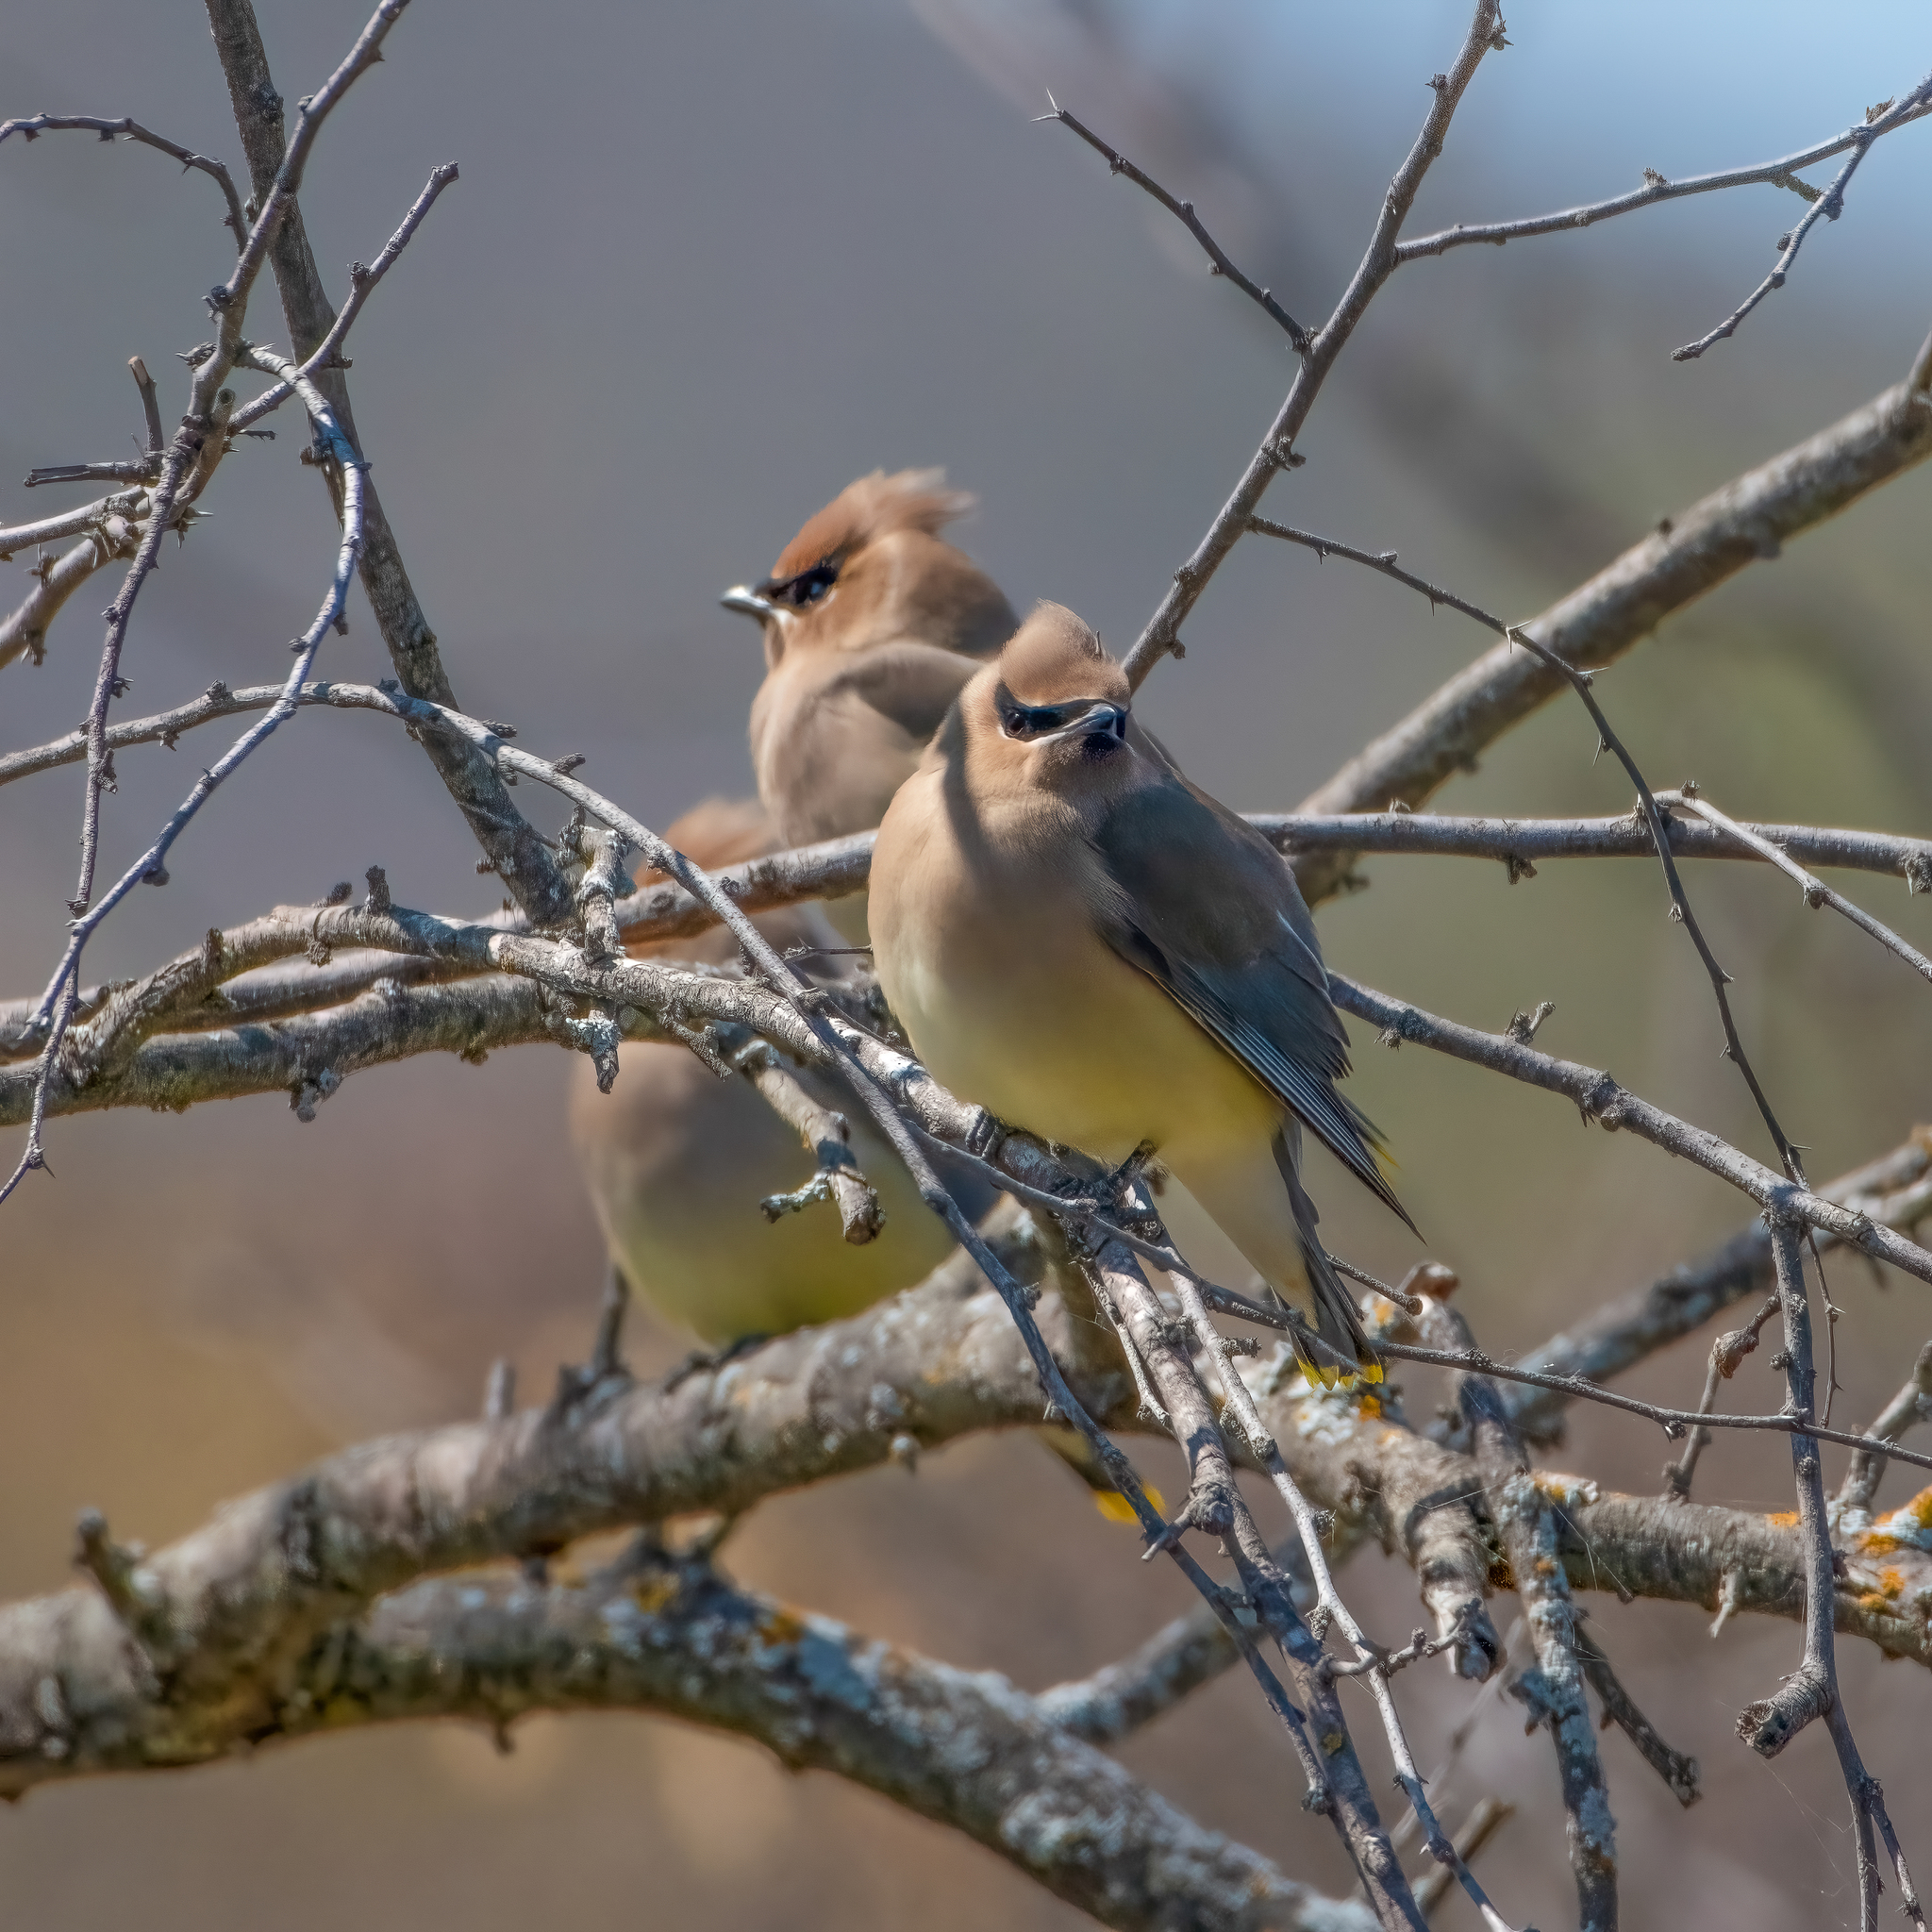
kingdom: Animalia
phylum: Chordata
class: Aves
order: Passeriformes
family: Bombycillidae
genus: Bombycilla
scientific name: Bombycilla cedrorum
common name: Cedar waxwing
